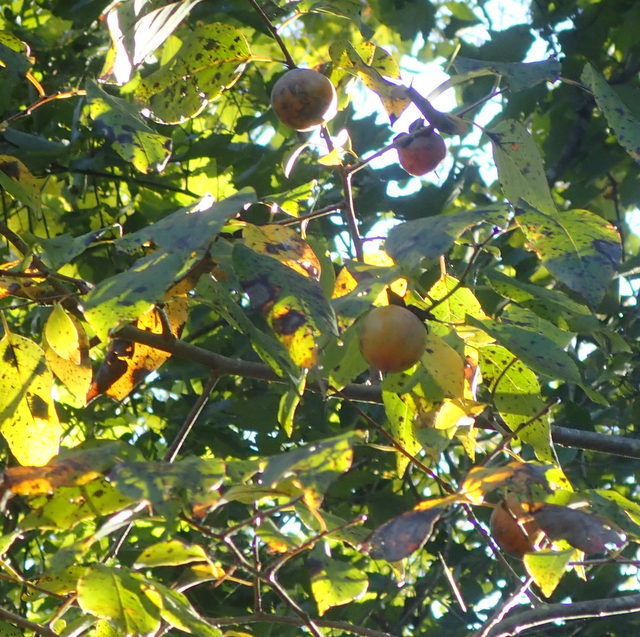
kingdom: Plantae
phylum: Tracheophyta
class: Magnoliopsida
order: Ericales
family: Ebenaceae
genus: Diospyros
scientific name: Diospyros virginiana
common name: Persimmon
